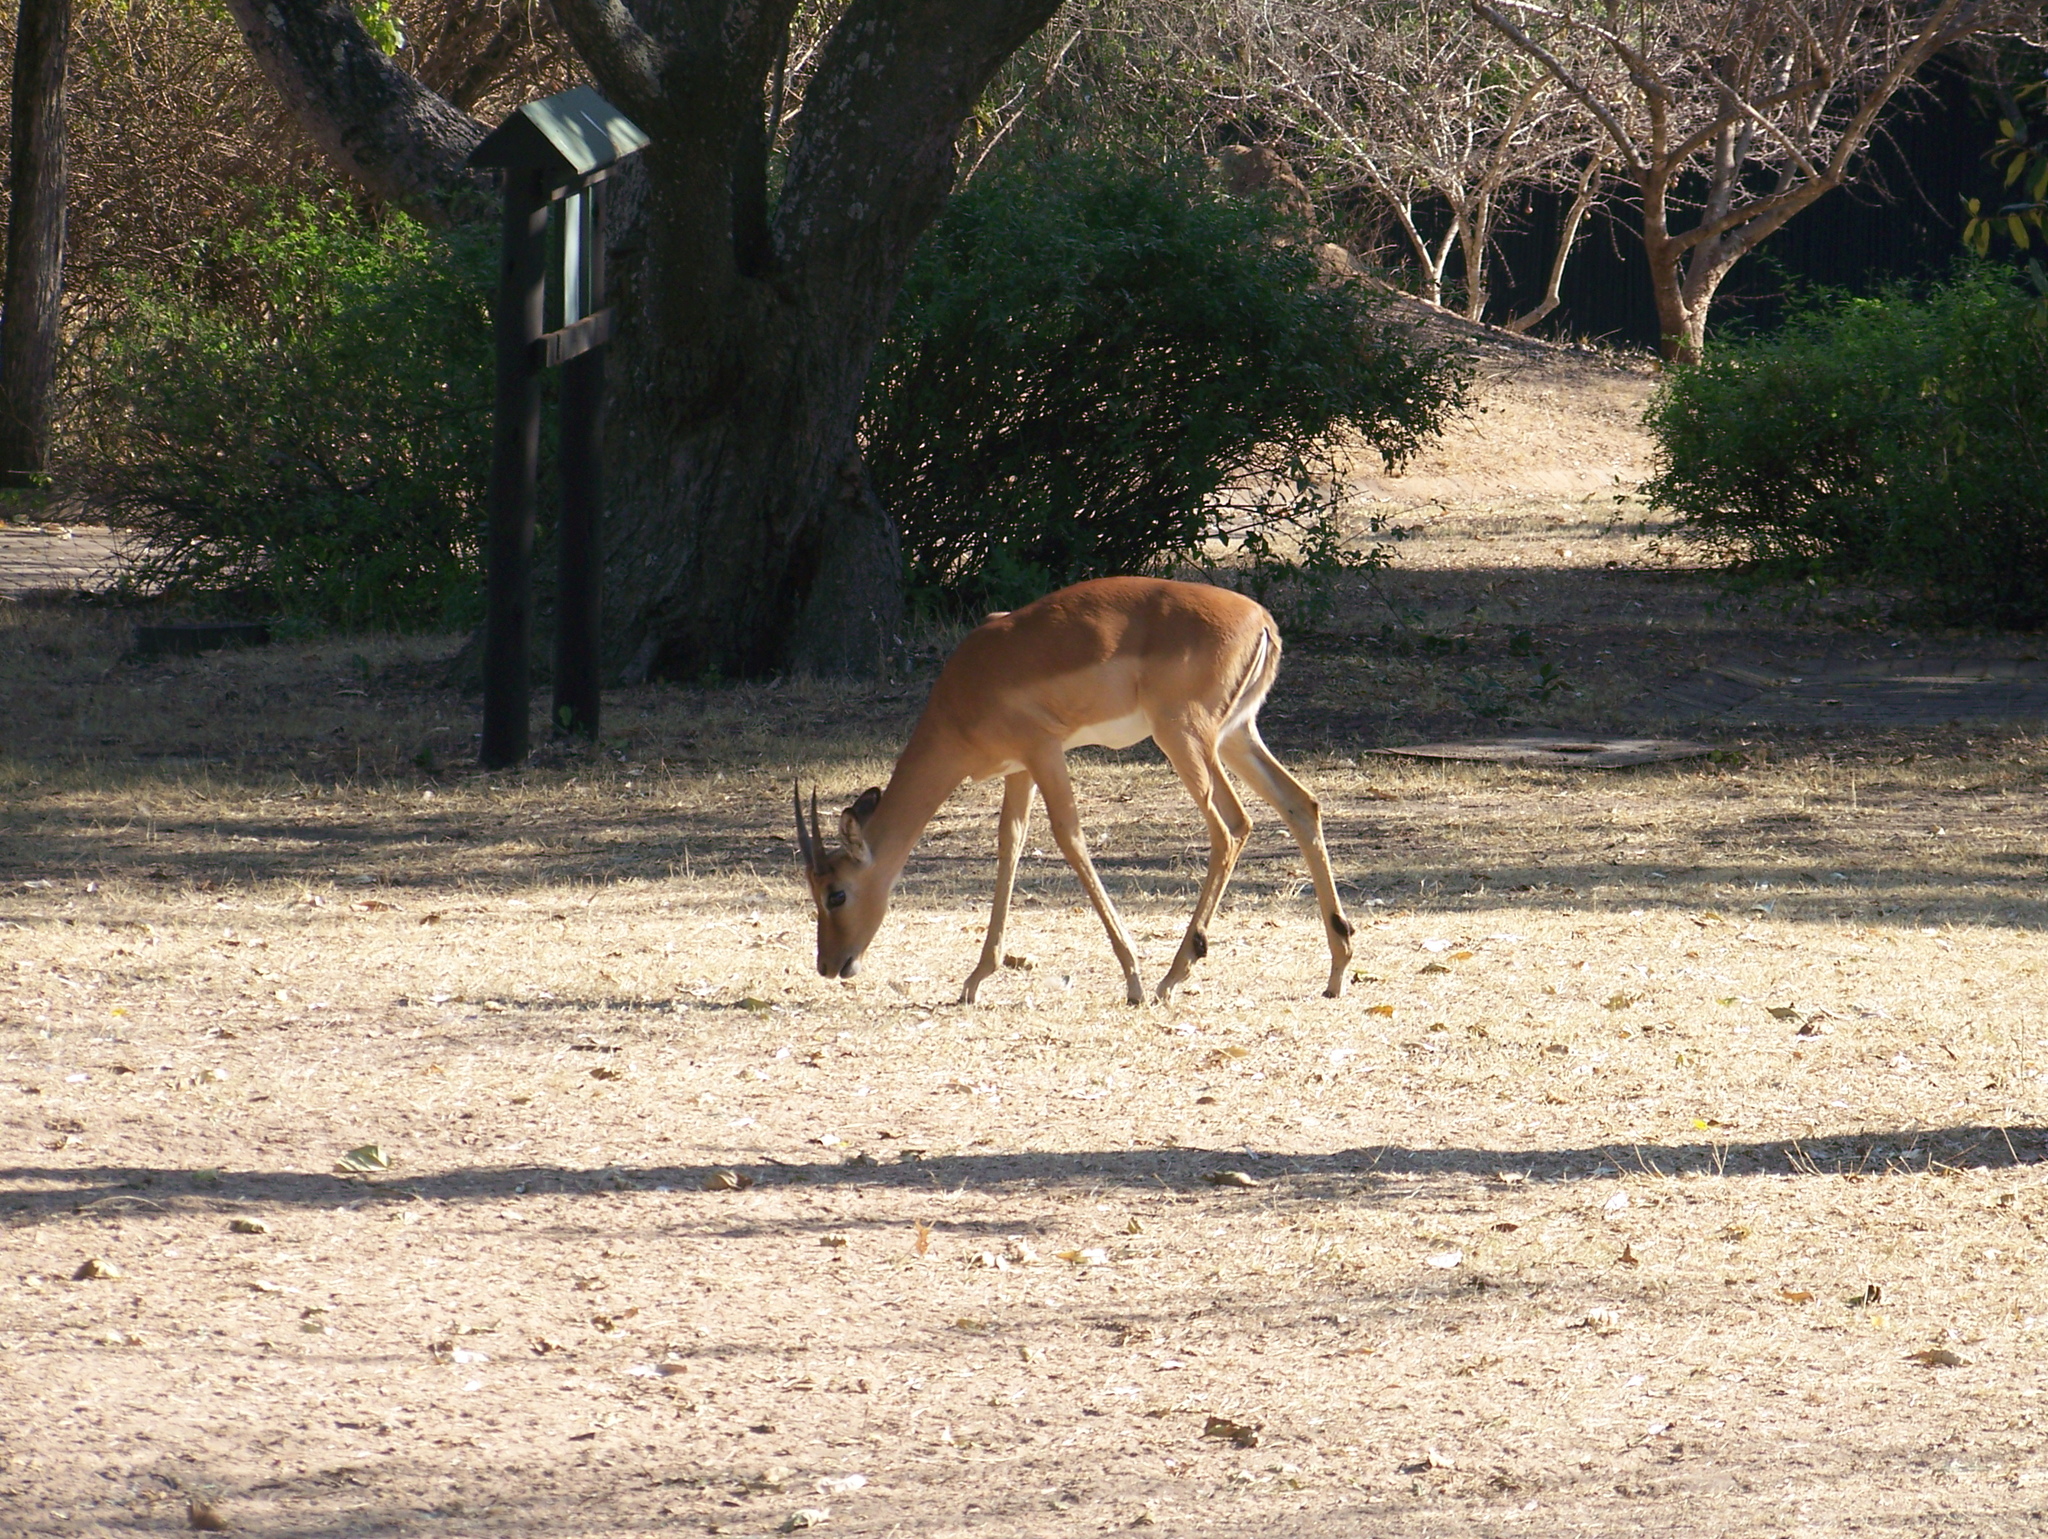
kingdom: Animalia
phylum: Chordata
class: Mammalia
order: Artiodactyla
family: Bovidae
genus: Aepyceros
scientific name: Aepyceros melampus
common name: Impala
